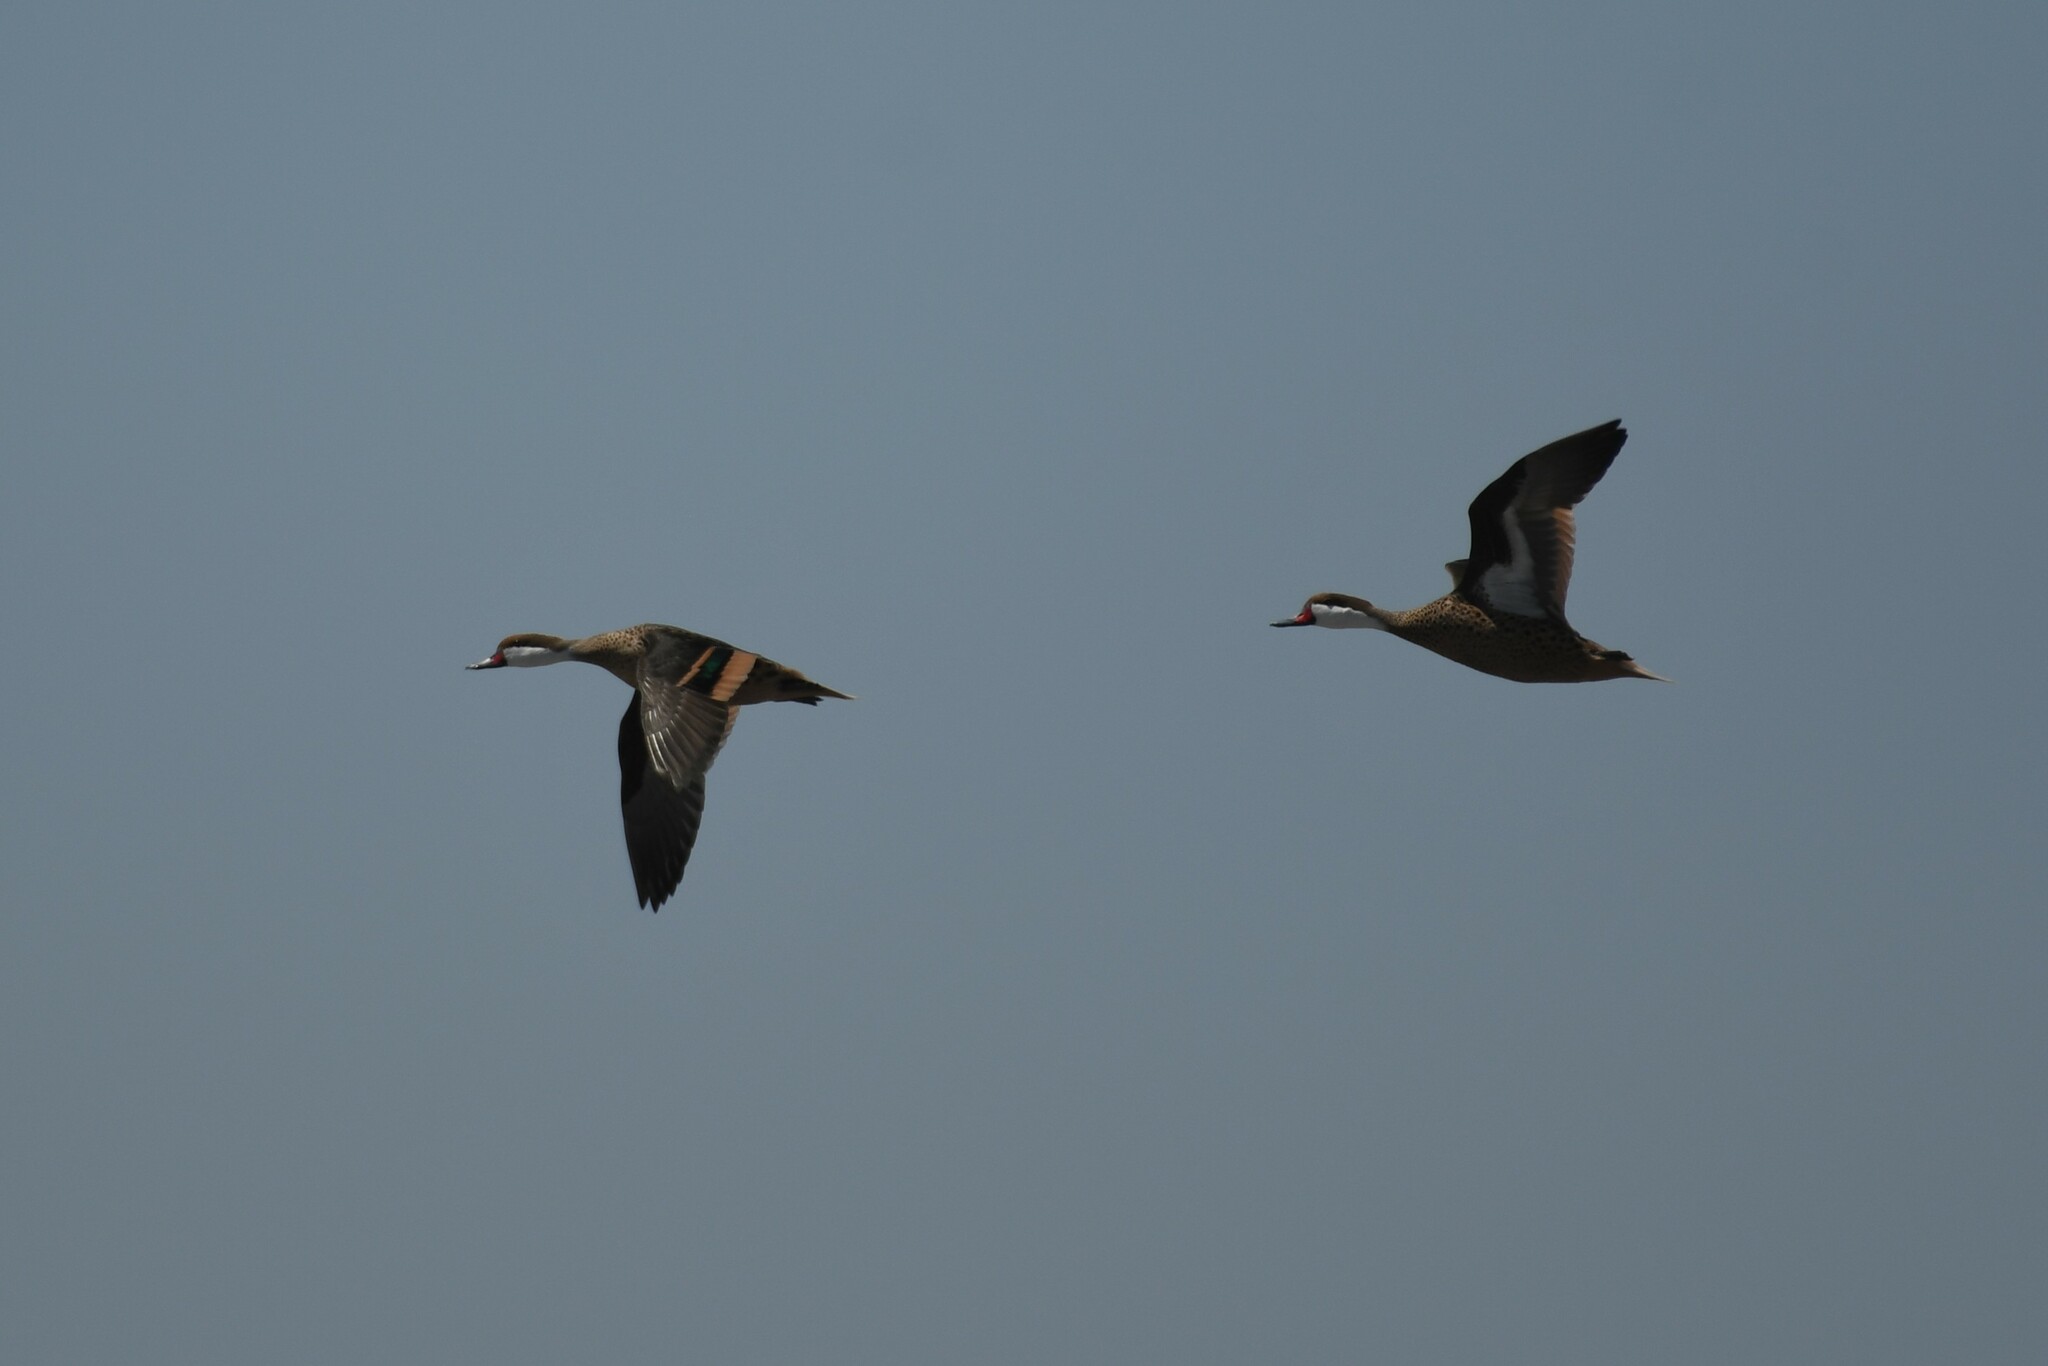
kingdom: Animalia
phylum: Chordata
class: Aves
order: Anseriformes
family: Anatidae
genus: Anas
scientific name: Anas bahamensis
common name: White-cheeked pintail
